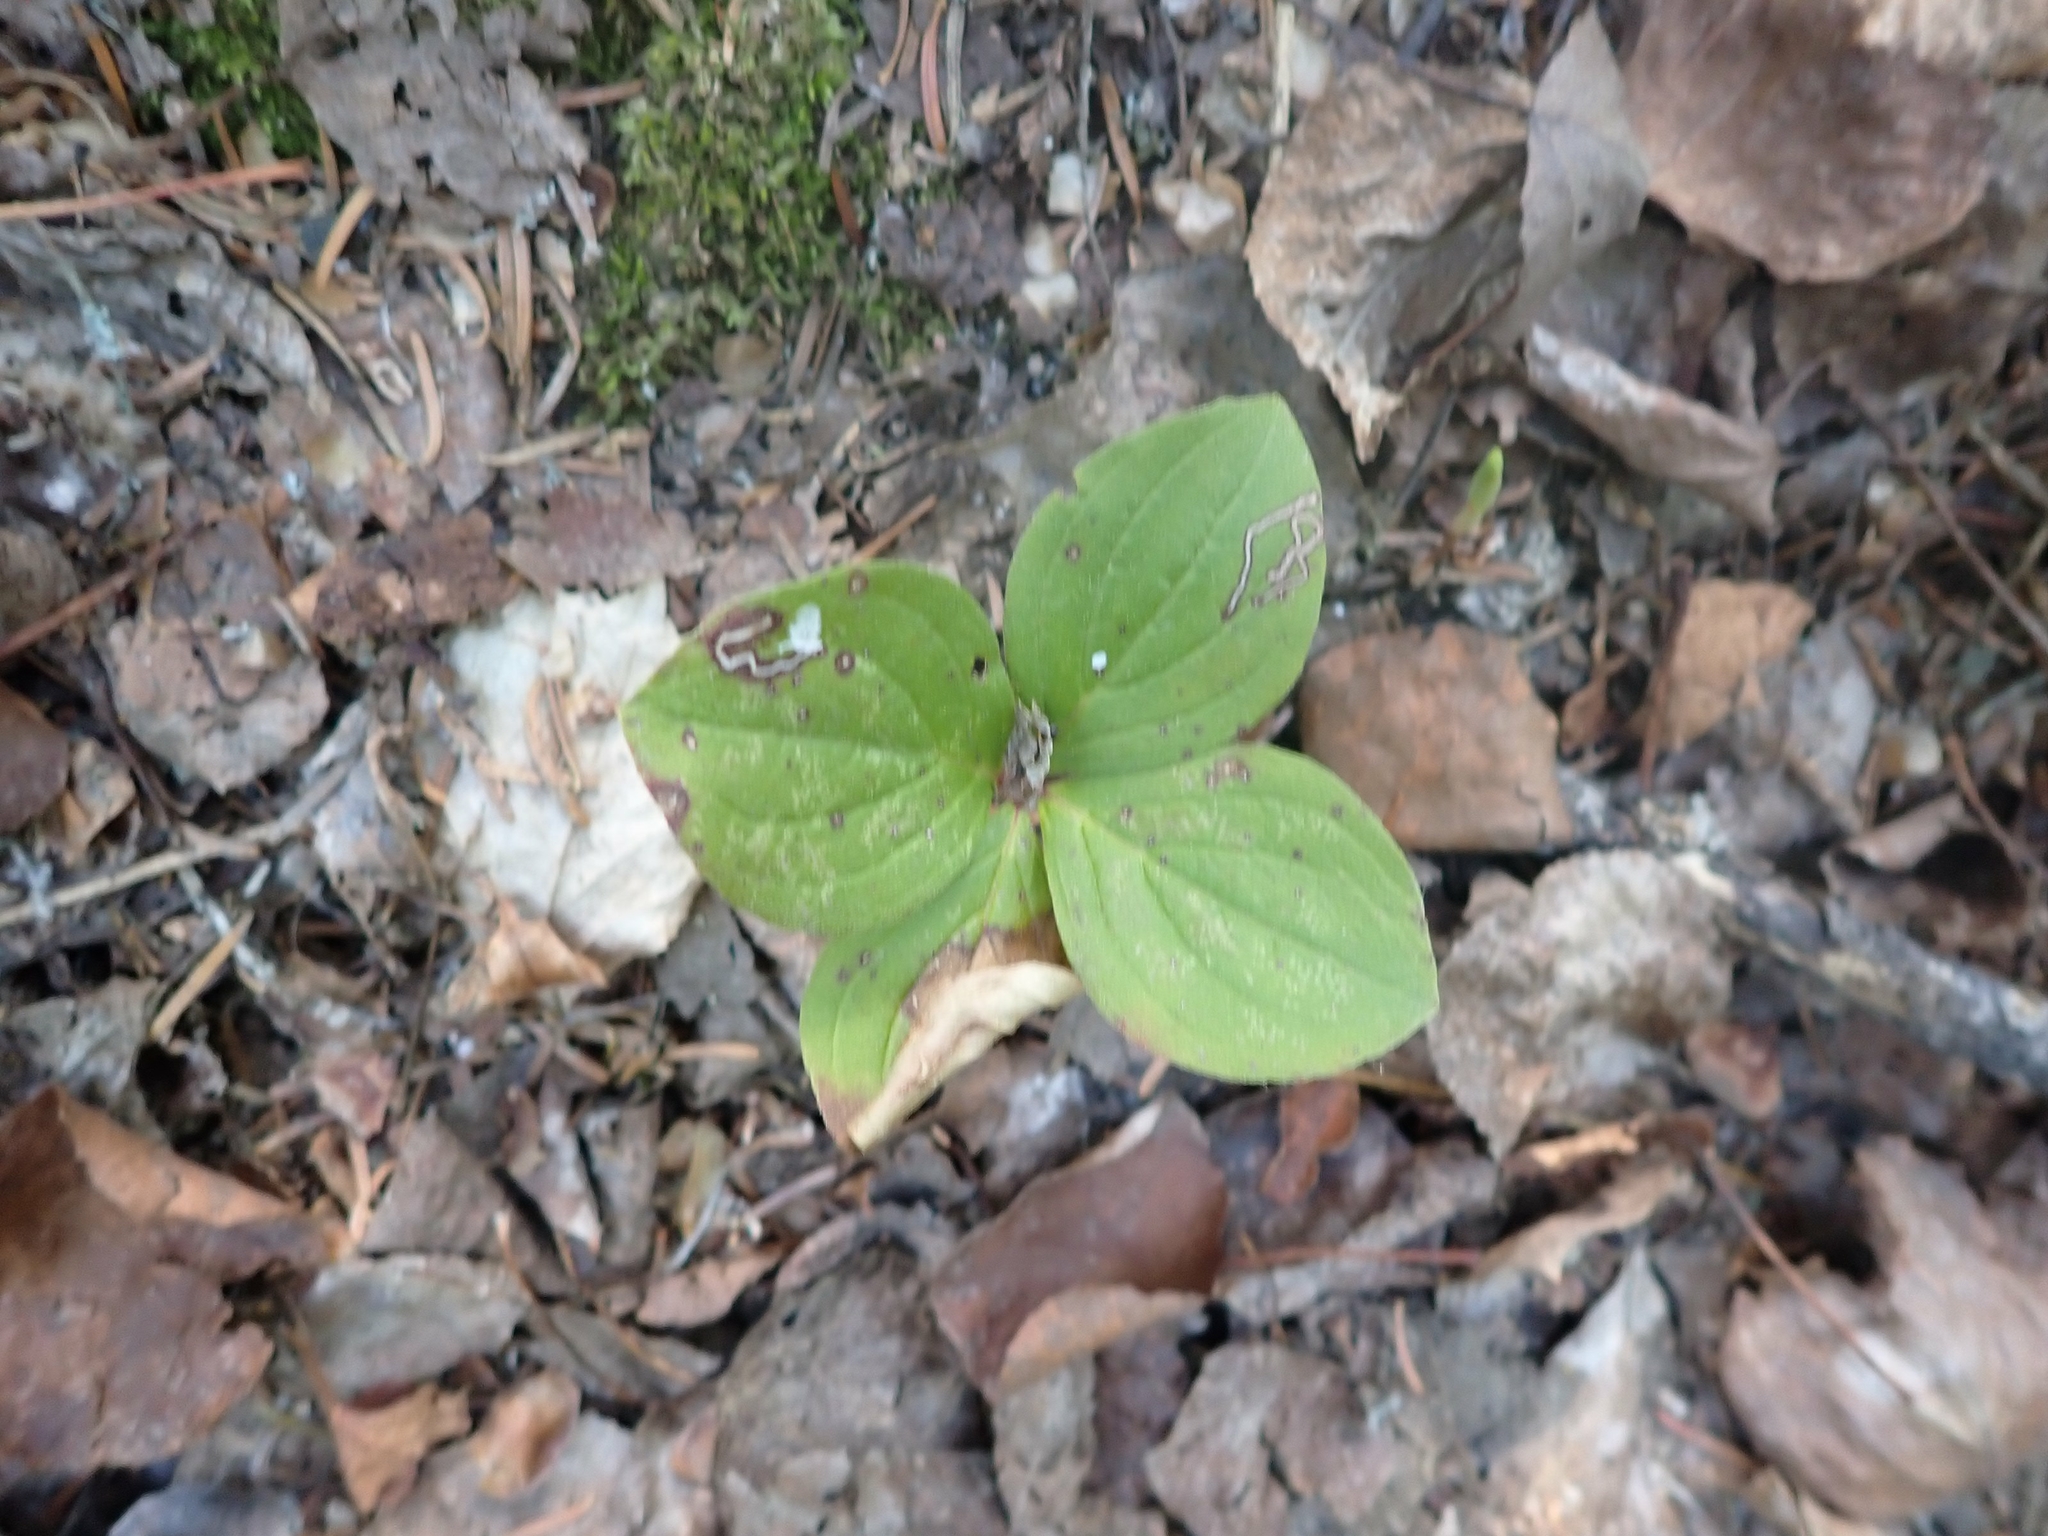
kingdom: Plantae
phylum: Tracheophyta
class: Magnoliopsida
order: Cornales
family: Cornaceae
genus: Cornus
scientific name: Cornus canadensis
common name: Creeping dogwood
